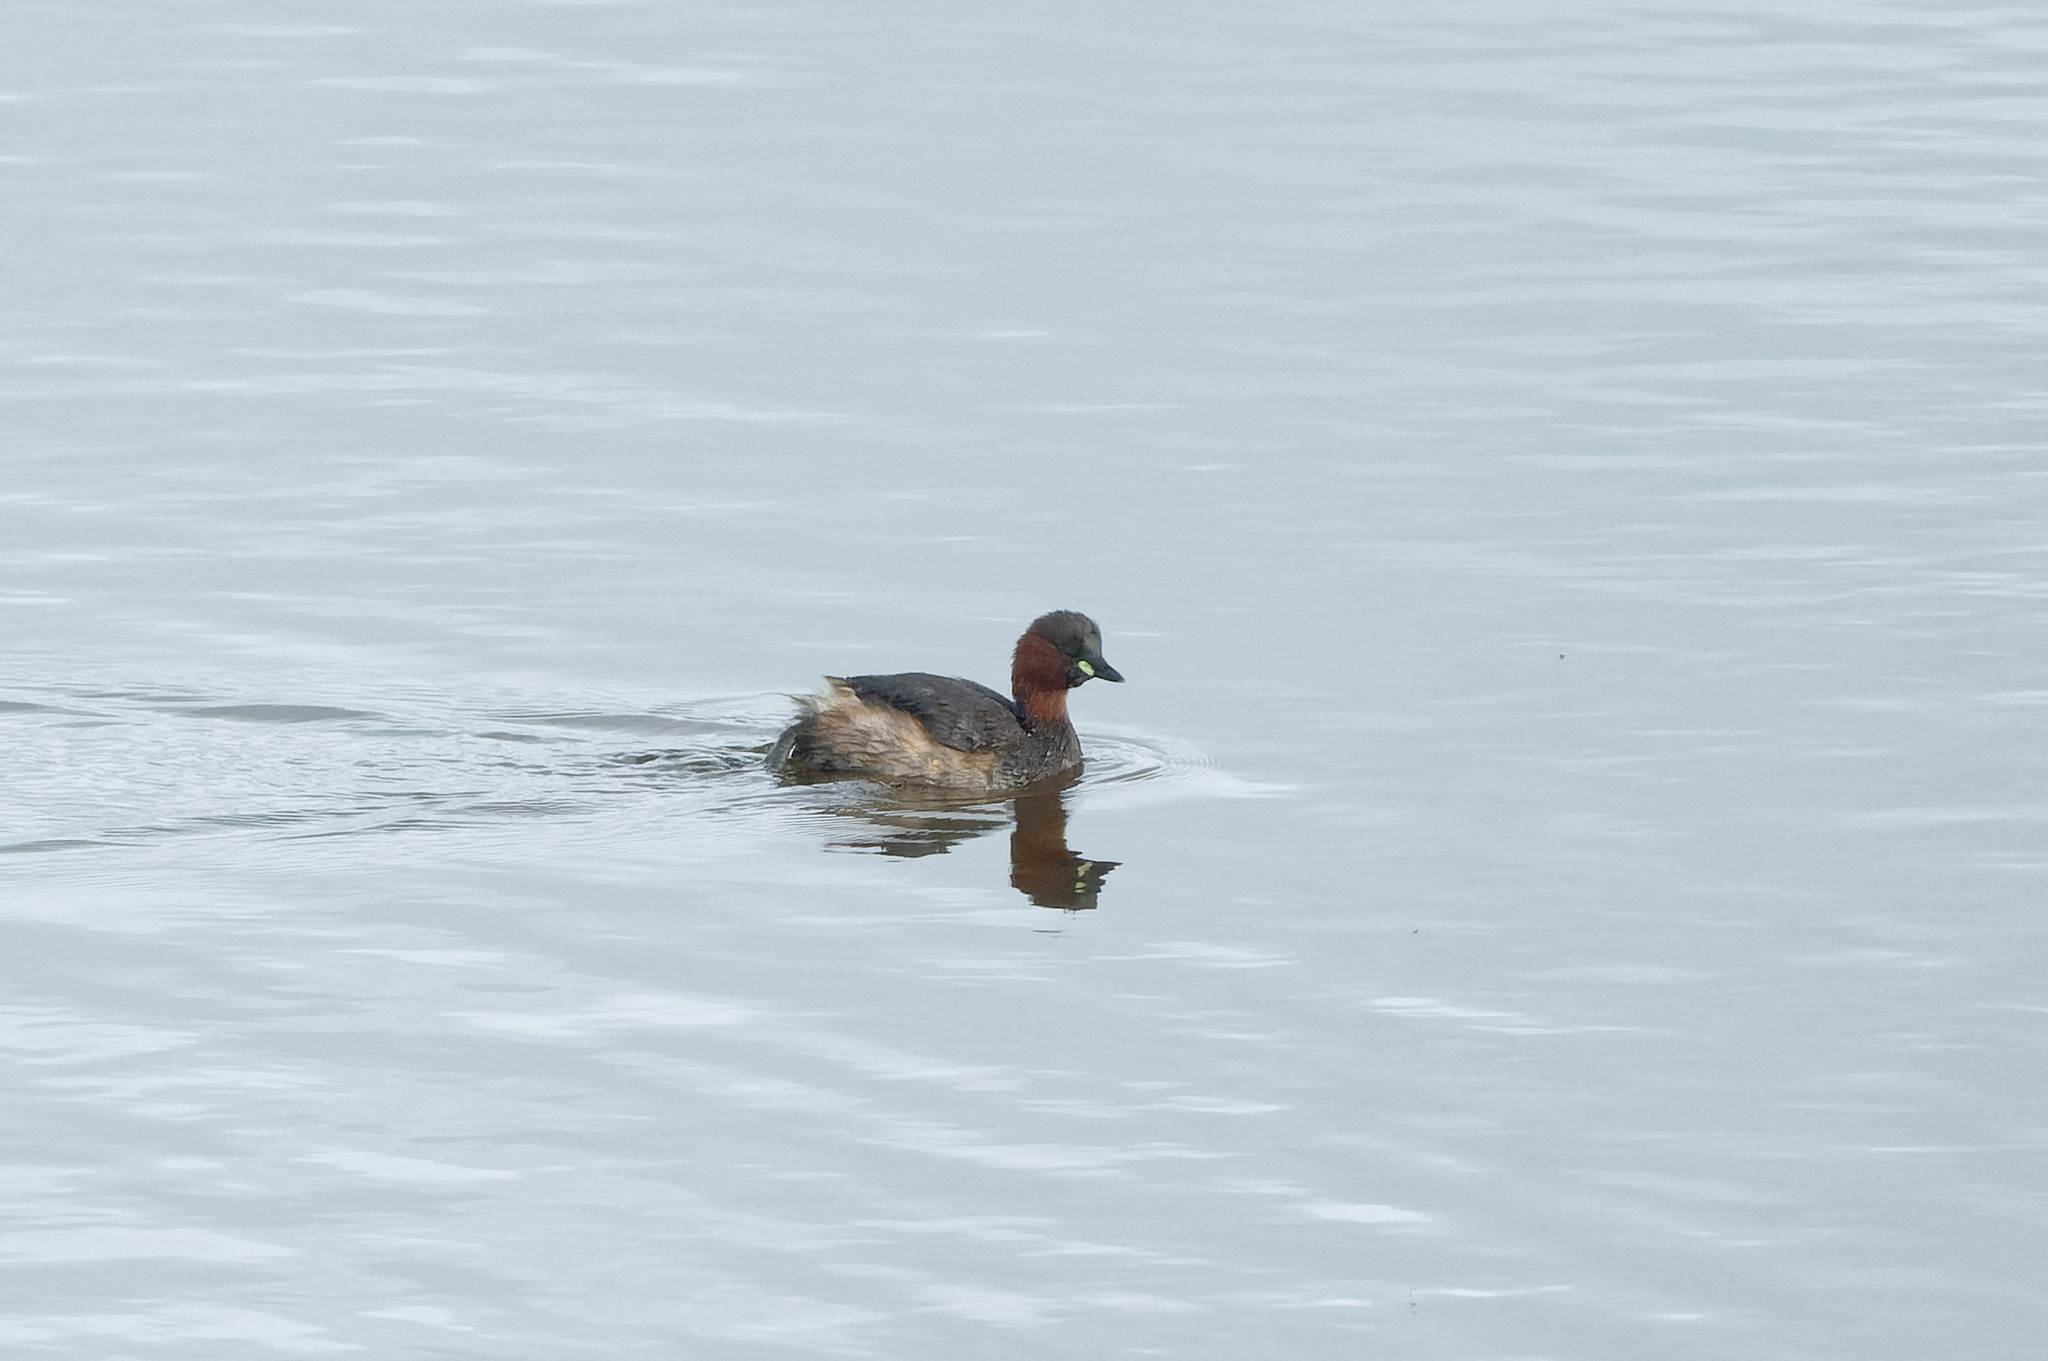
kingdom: Animalia
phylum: Chordata
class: Aves
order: Podicipediformes
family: Podicipedidae
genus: Tachybaptus
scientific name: Tachybaptus ruficollis
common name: Little grebe
